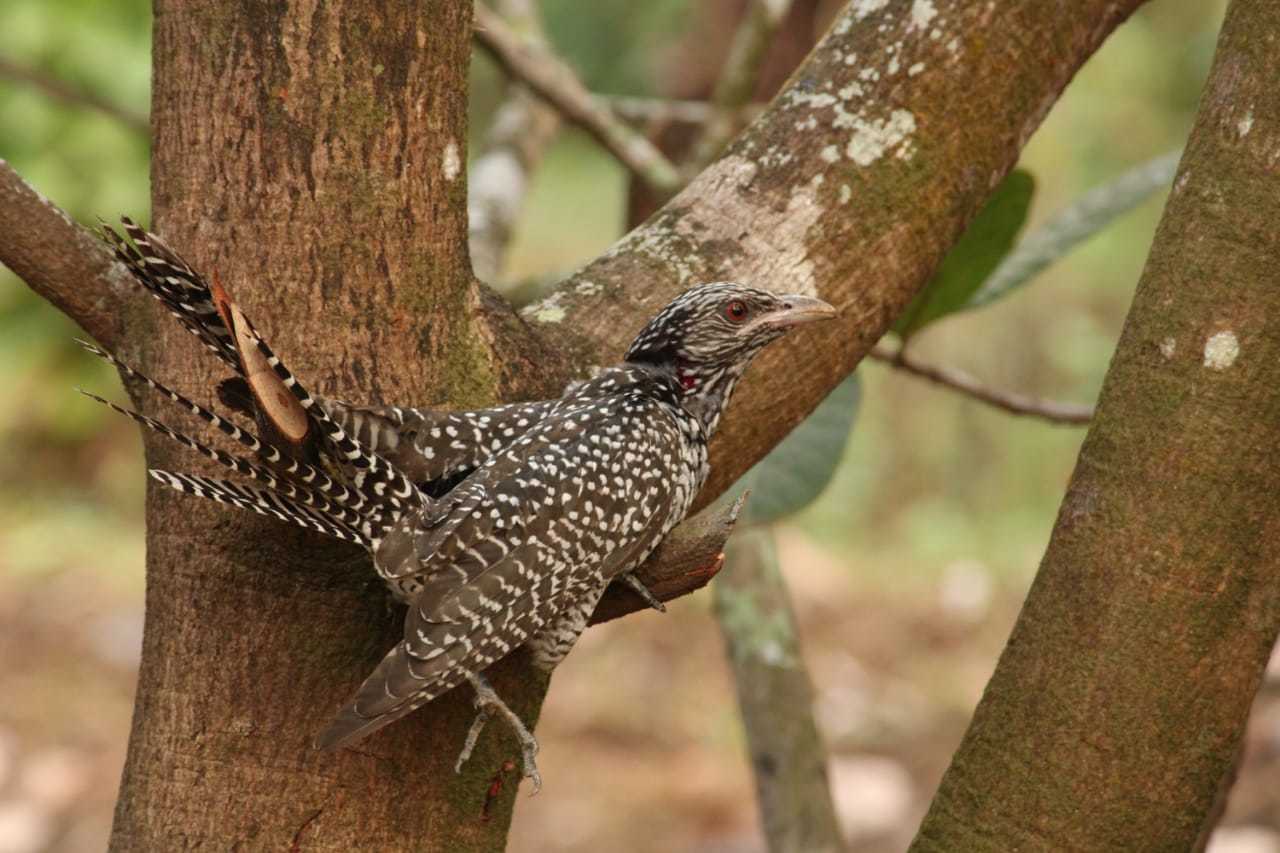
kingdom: Animalia
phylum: Chordata
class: Aves
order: Cuculiformes
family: Cuculidae
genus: Eudynamys
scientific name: Eudynamys scolopaceus
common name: Asian koel
